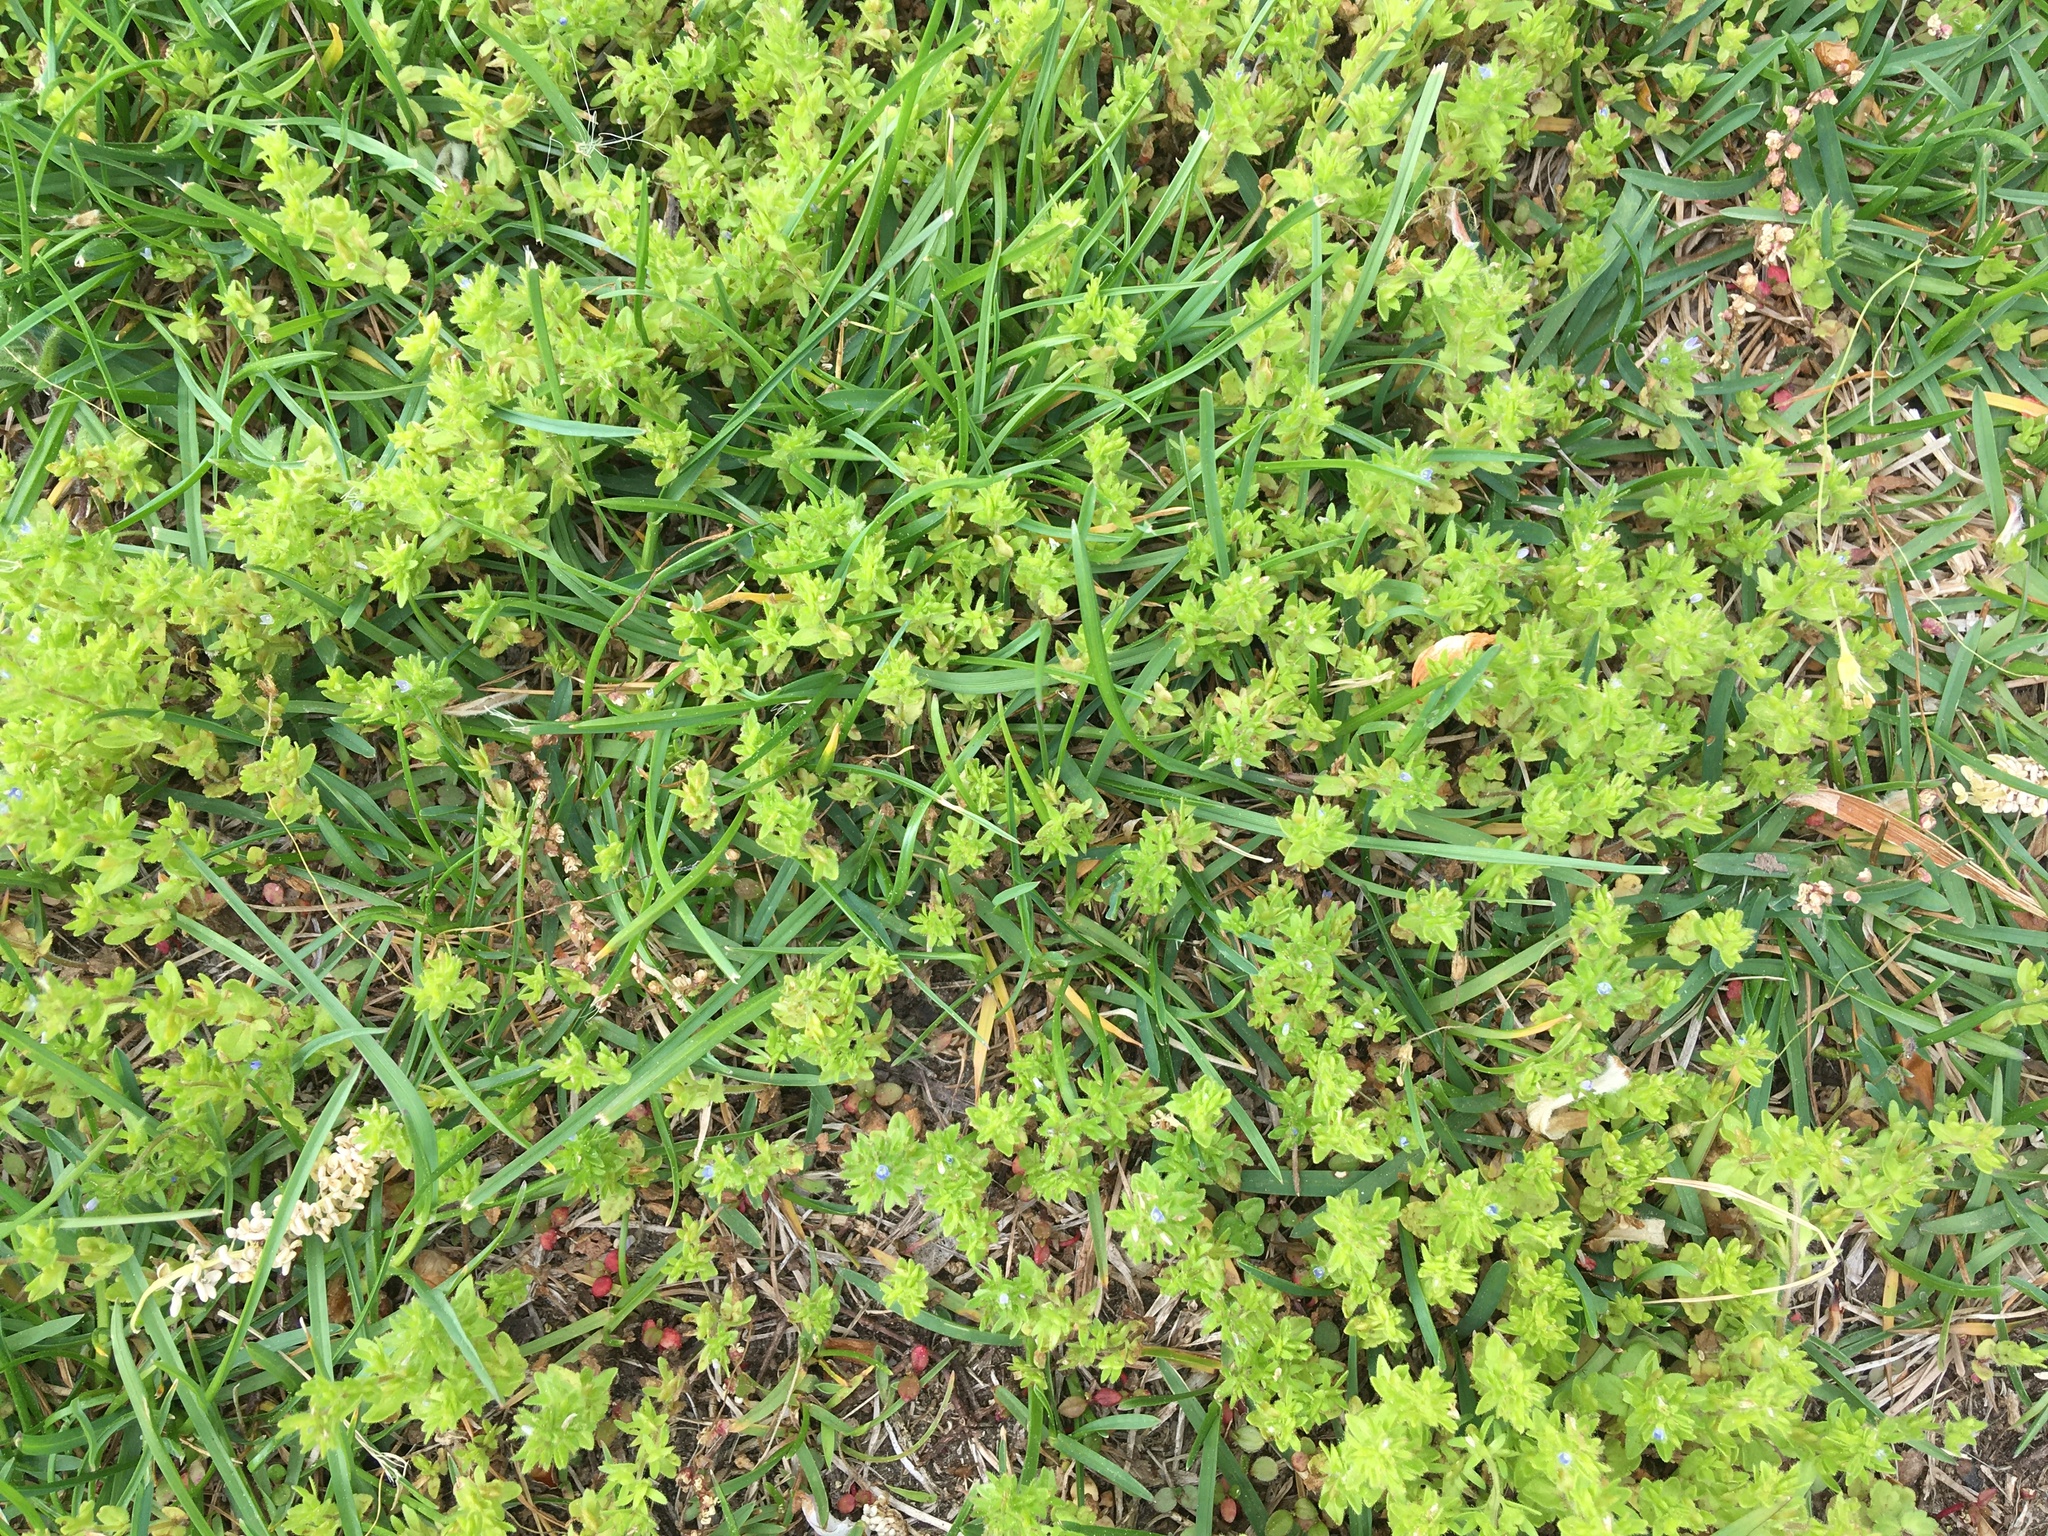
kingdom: Plantae
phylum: Tracheophyta
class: Magnoliopsida
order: Lamiales
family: Plantaginaceae
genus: Veronica
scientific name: Veronica arvensis
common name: Corn speedwell
